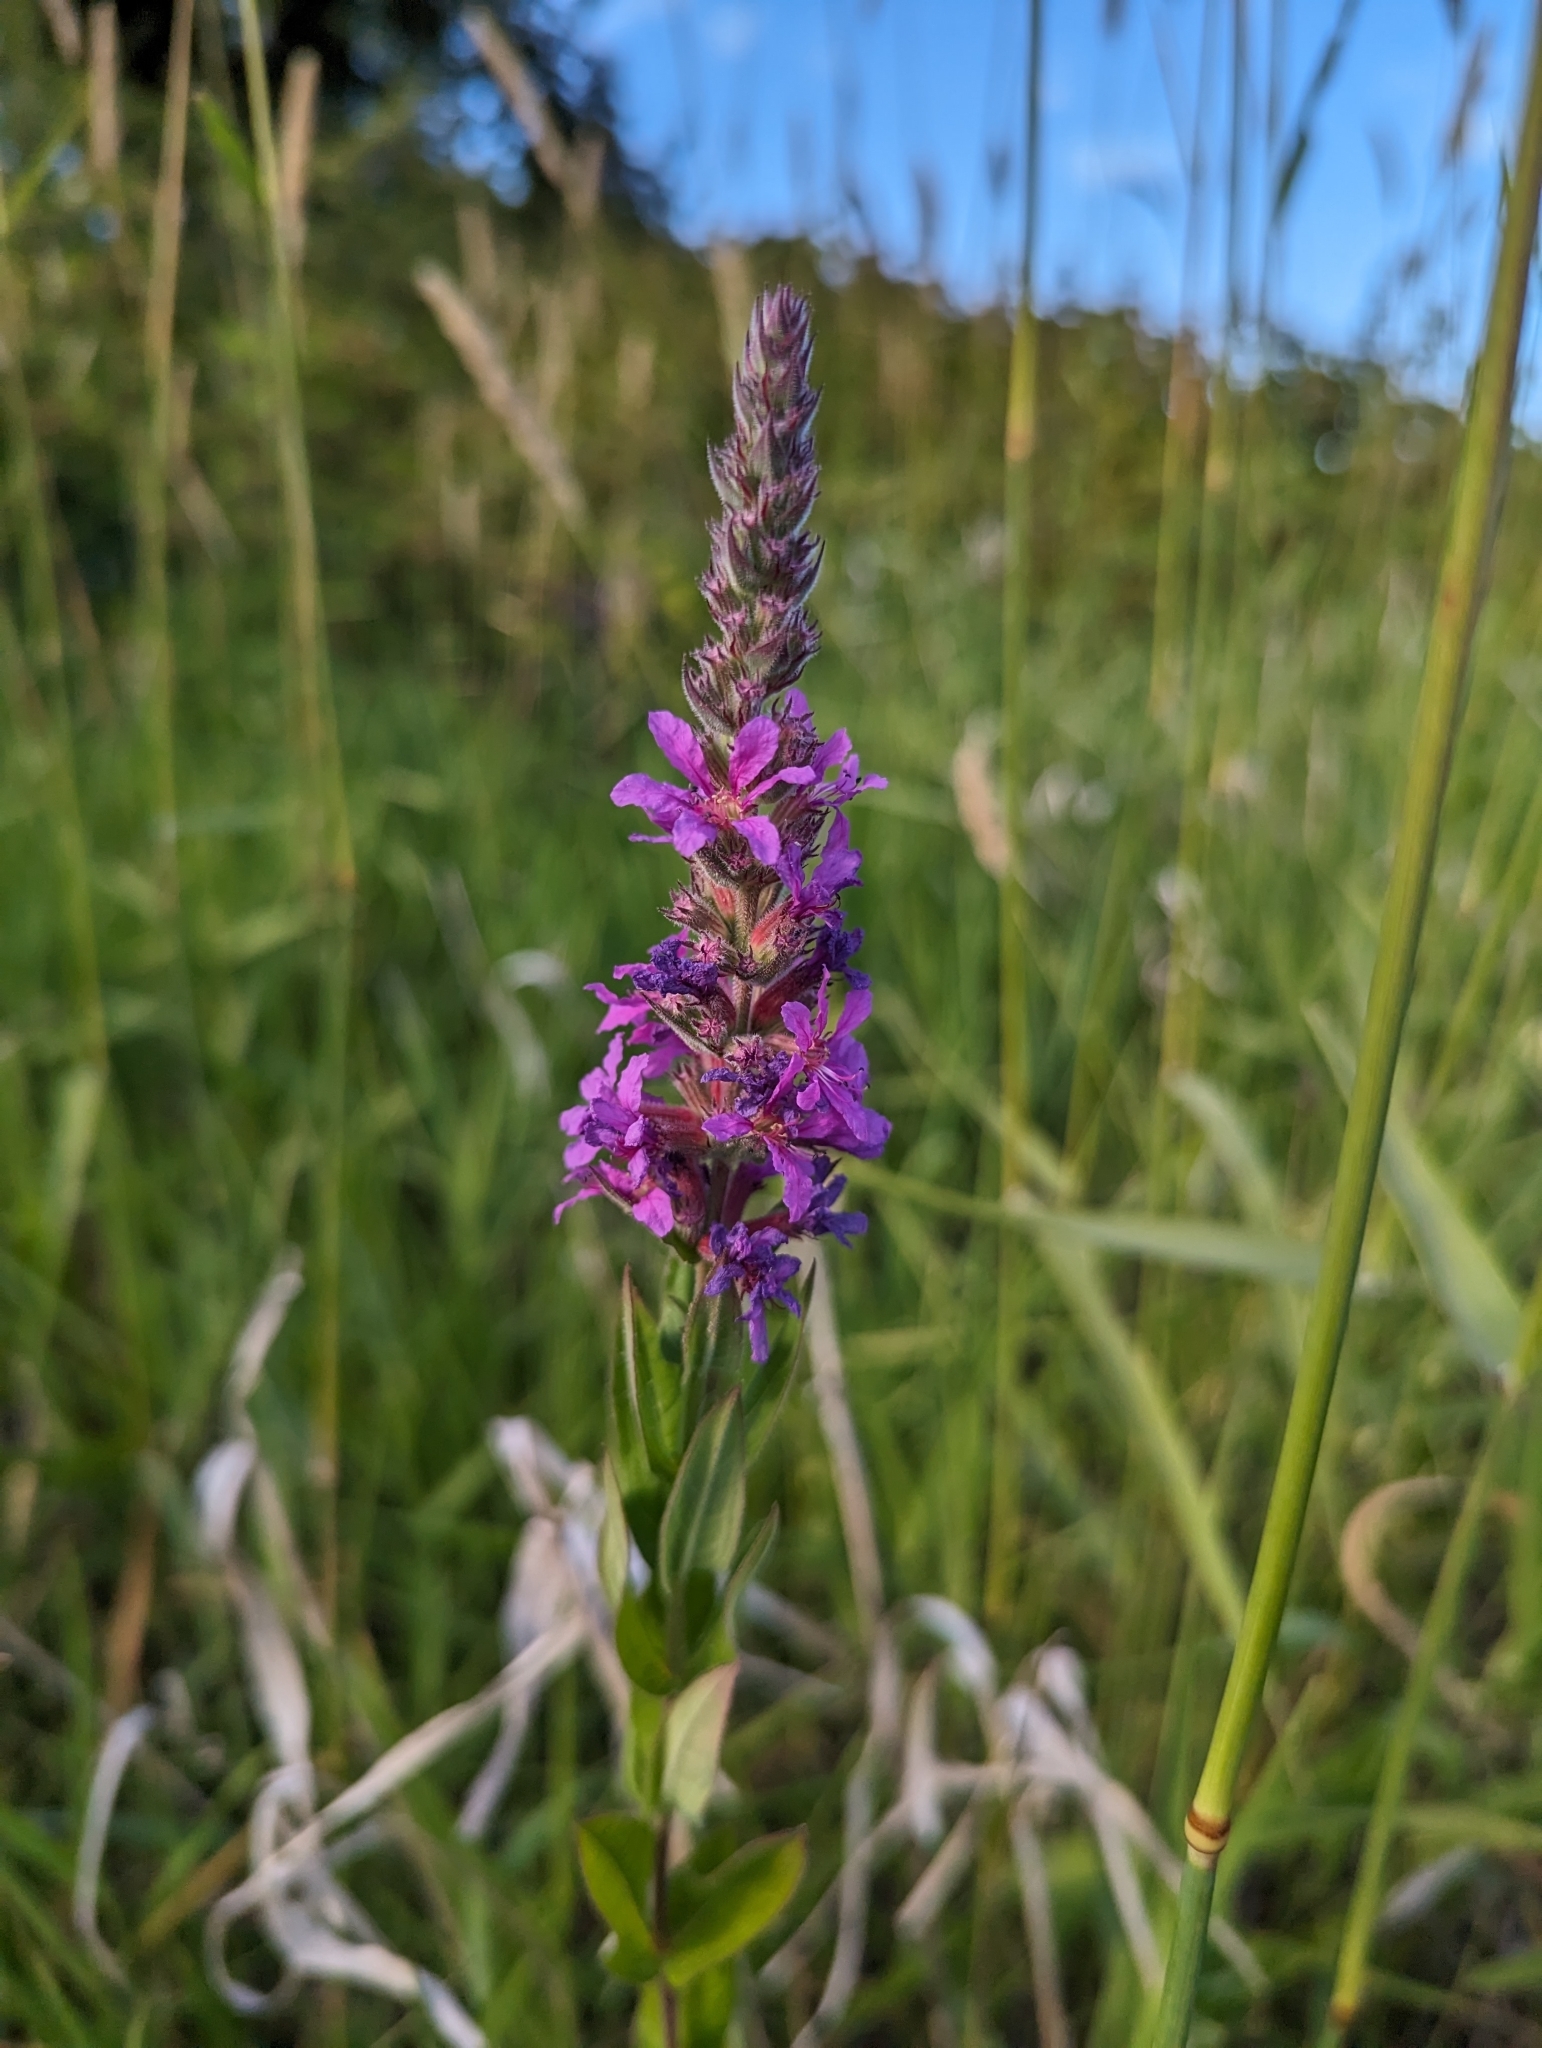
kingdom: Plantae
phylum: Tracheophyta
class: Magnoliopsida
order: Myrtales
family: Lythraceae
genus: Lythrum
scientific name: Lythrum salicaria
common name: Purple loosestrife
